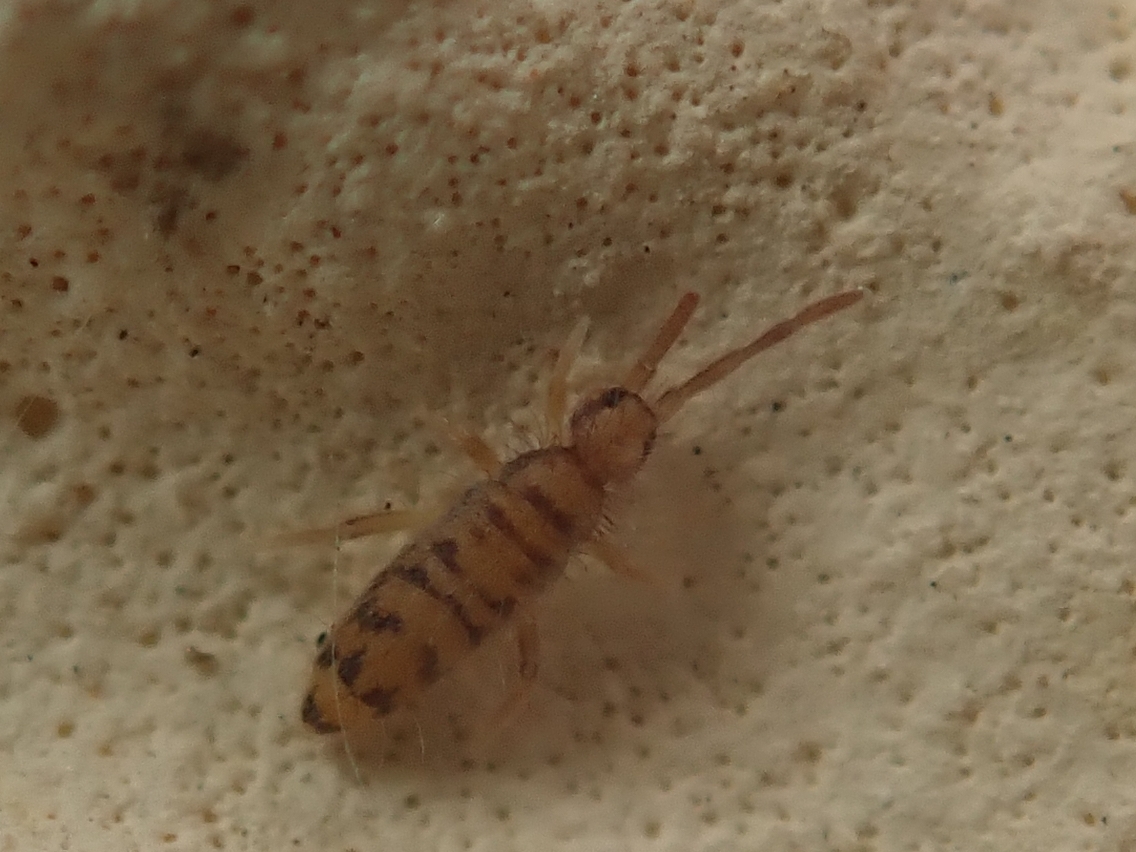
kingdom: Animalia
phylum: Arthropoda
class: Collembola
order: Entomobryomorpha
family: Entomobryidae
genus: Entomobrya
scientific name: Entomobrya multifasciata
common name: Springtail
